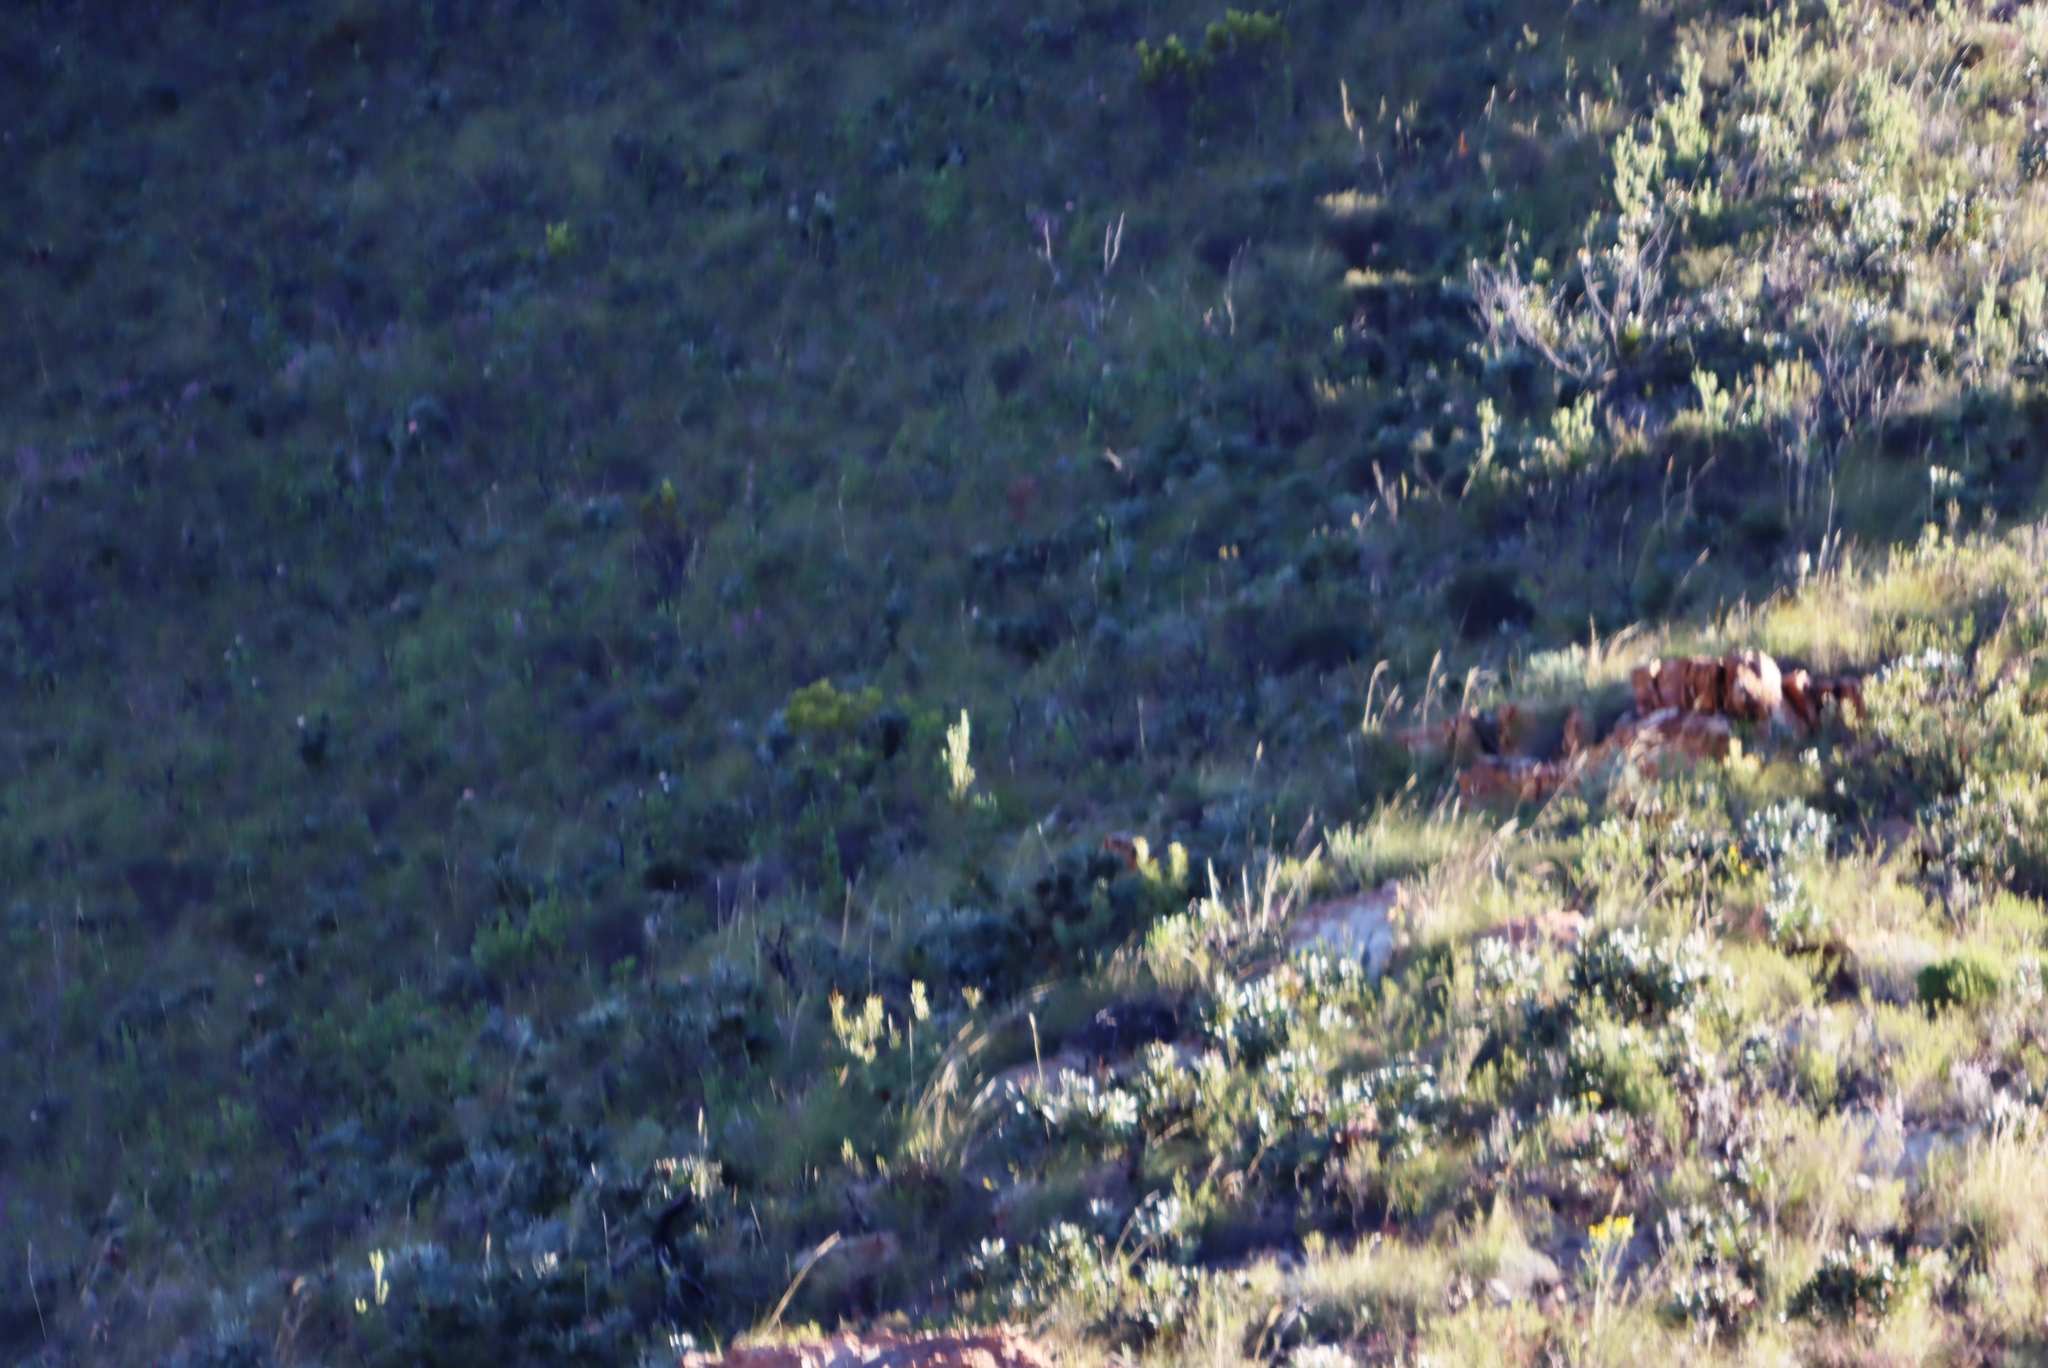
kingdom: Plantae
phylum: Tracheophyta
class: Magnoliopsida
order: Proteales
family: Proteaceae
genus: Leucadendron
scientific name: Leucadendron salignum
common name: Common sunshine conebush
